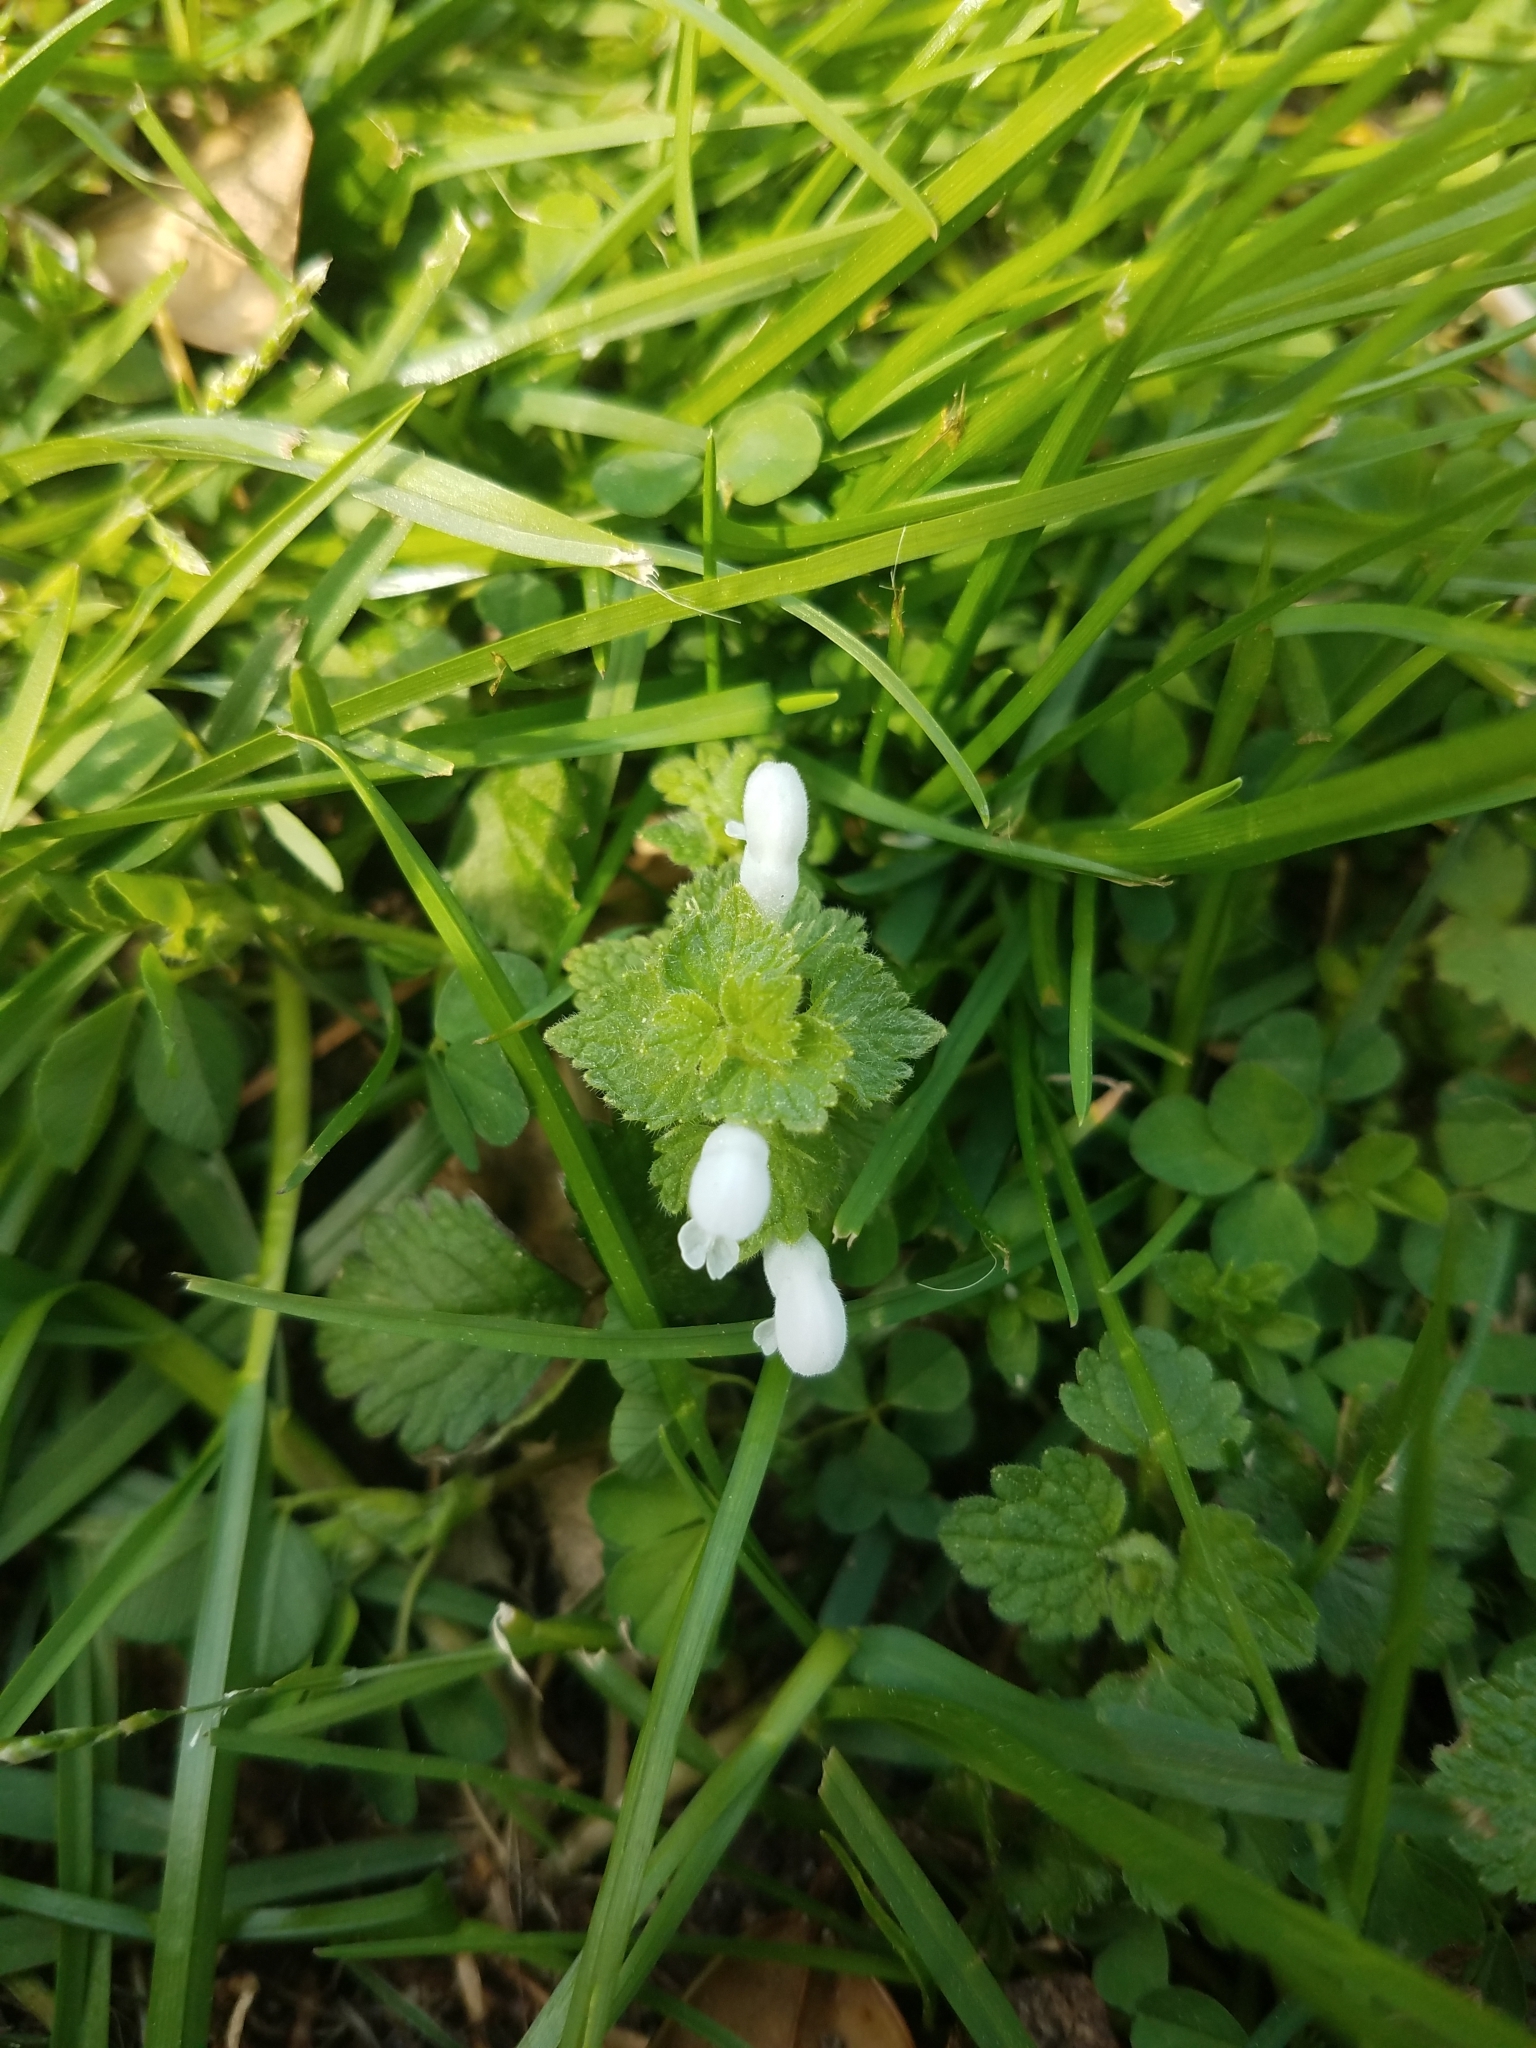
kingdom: Plantae
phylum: Tracheophyta
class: Magnoliopsida
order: Lamiales
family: Lamiaceae
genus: Lamium
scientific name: Lamium purpureum
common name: Red dead-nettle
